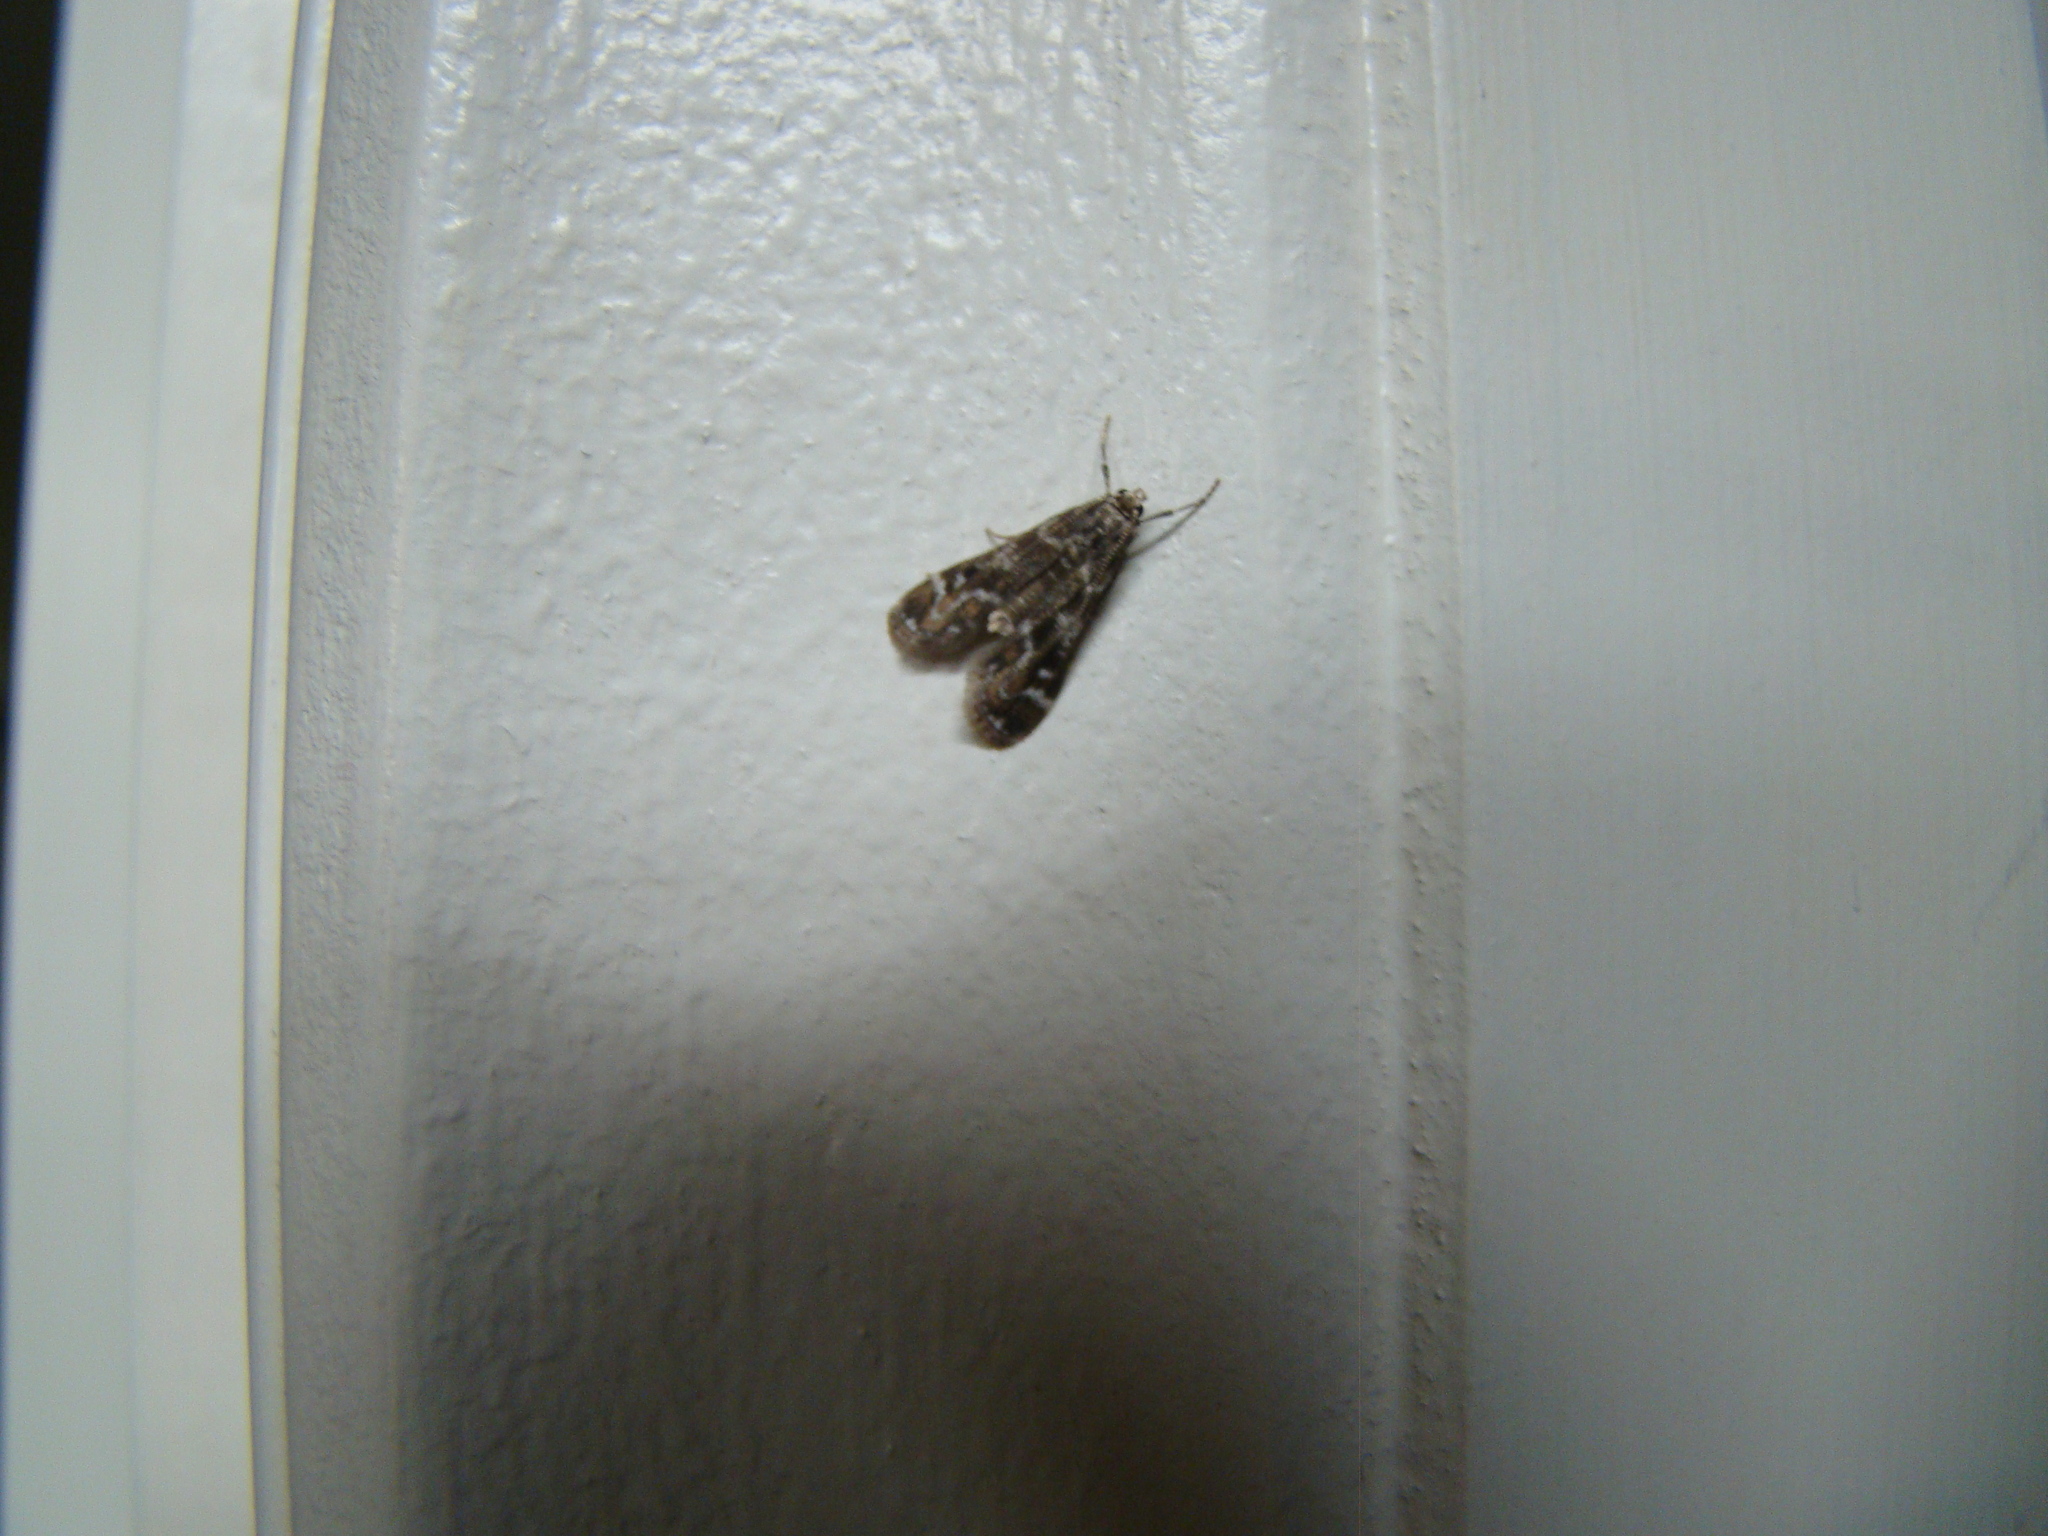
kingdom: Animalia
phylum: Arthropoda
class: Insecta
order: Lepidoptera
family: Crambidae
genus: Hygraula
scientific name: Hygraula nitens
